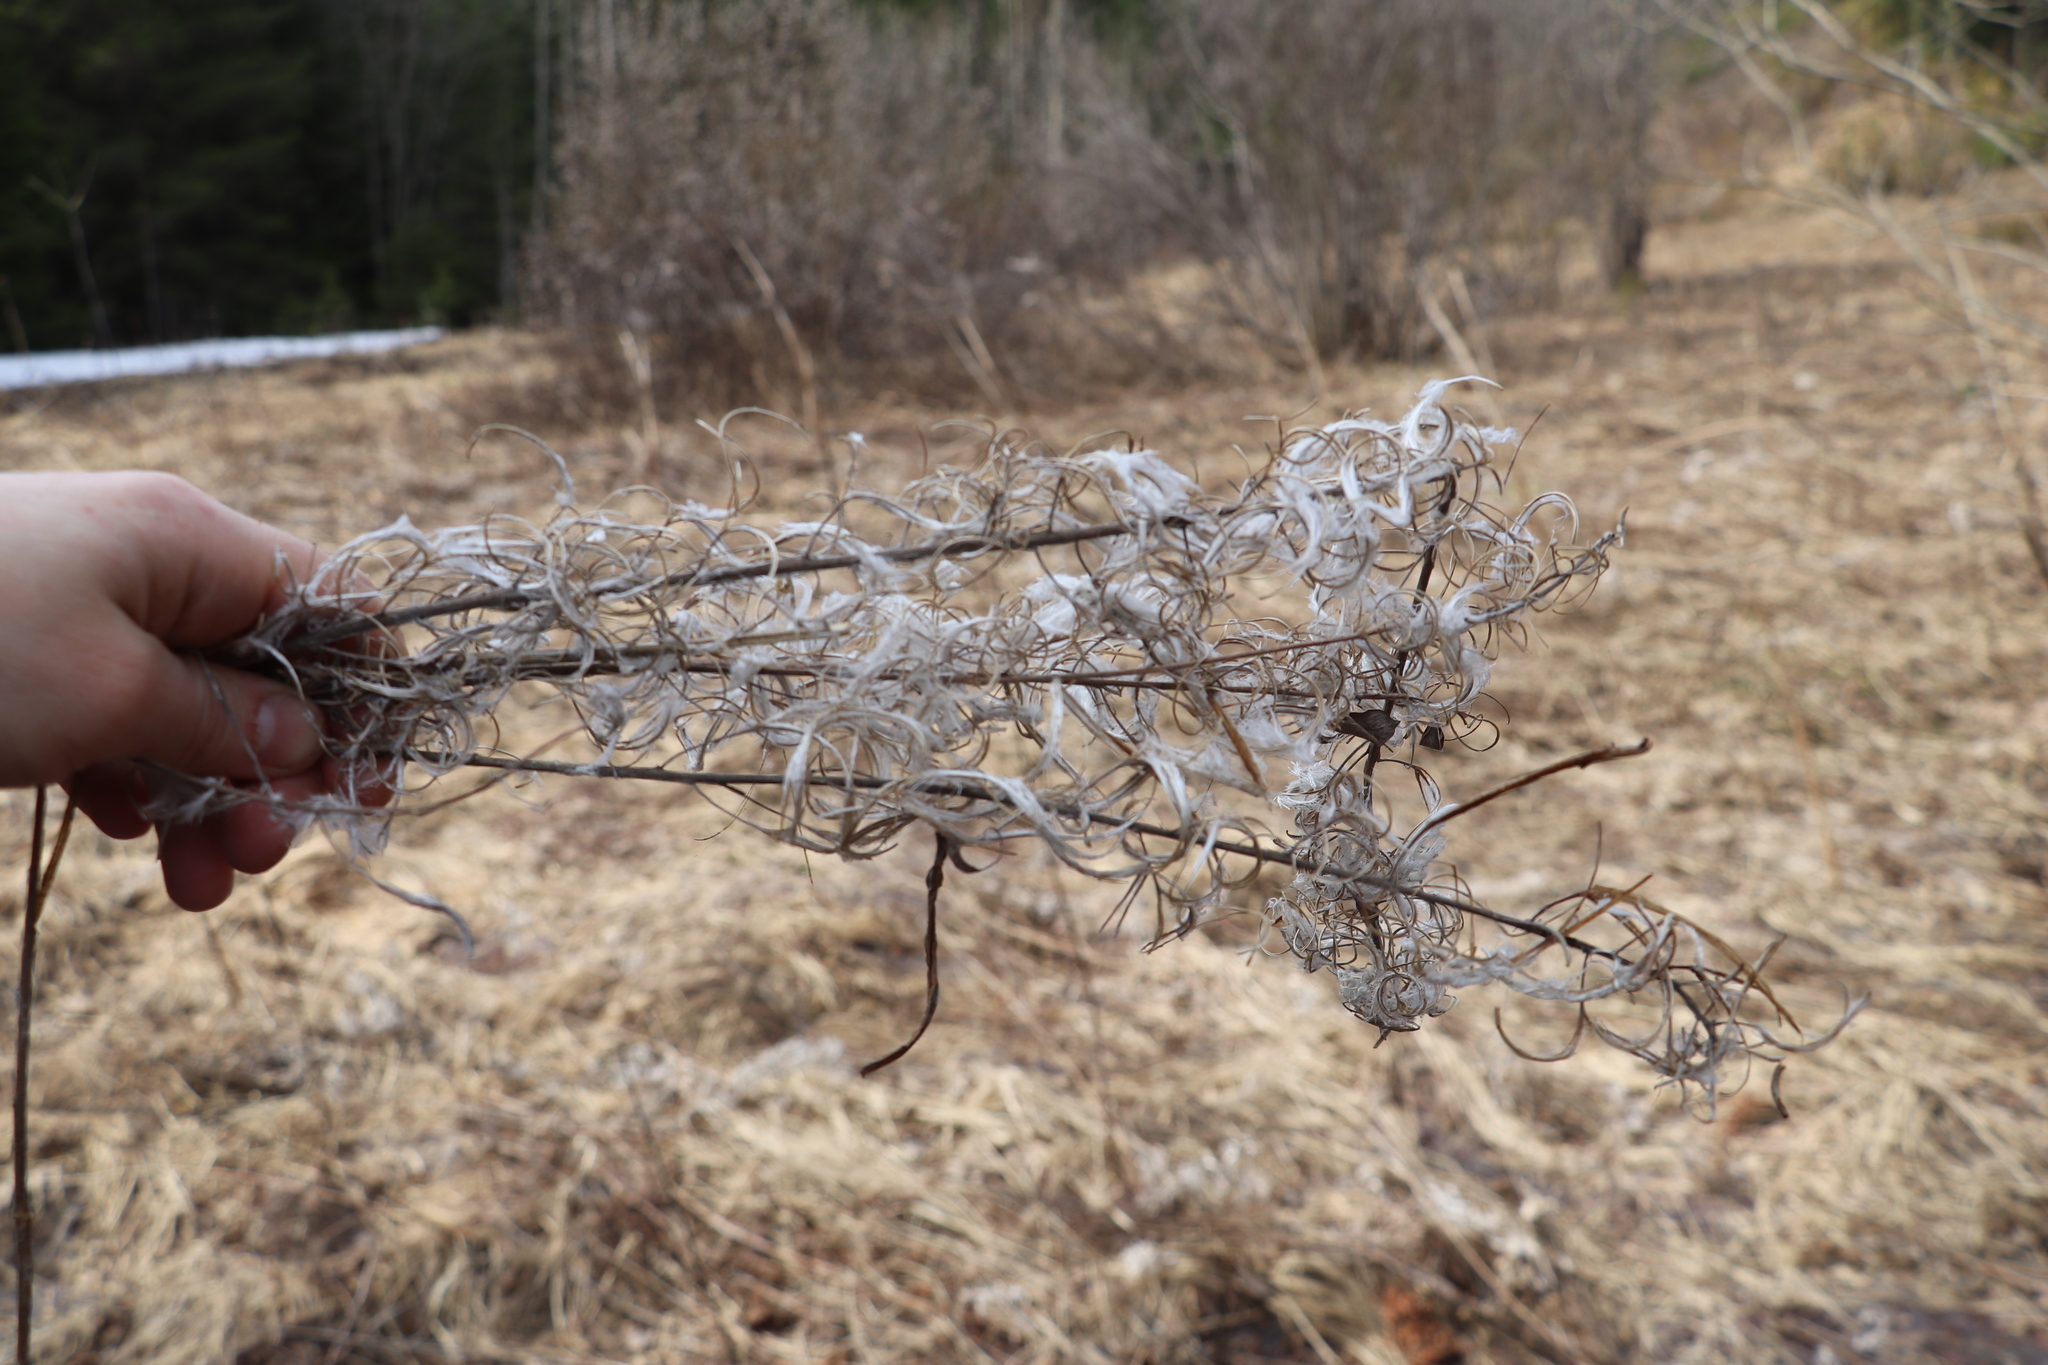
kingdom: Plantae
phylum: Tracheophyta
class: Magnoliopsida
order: Myrtales
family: Onagraceae
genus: Chamaenerion
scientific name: Chamaenerion angustifolium
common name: Fireweed
